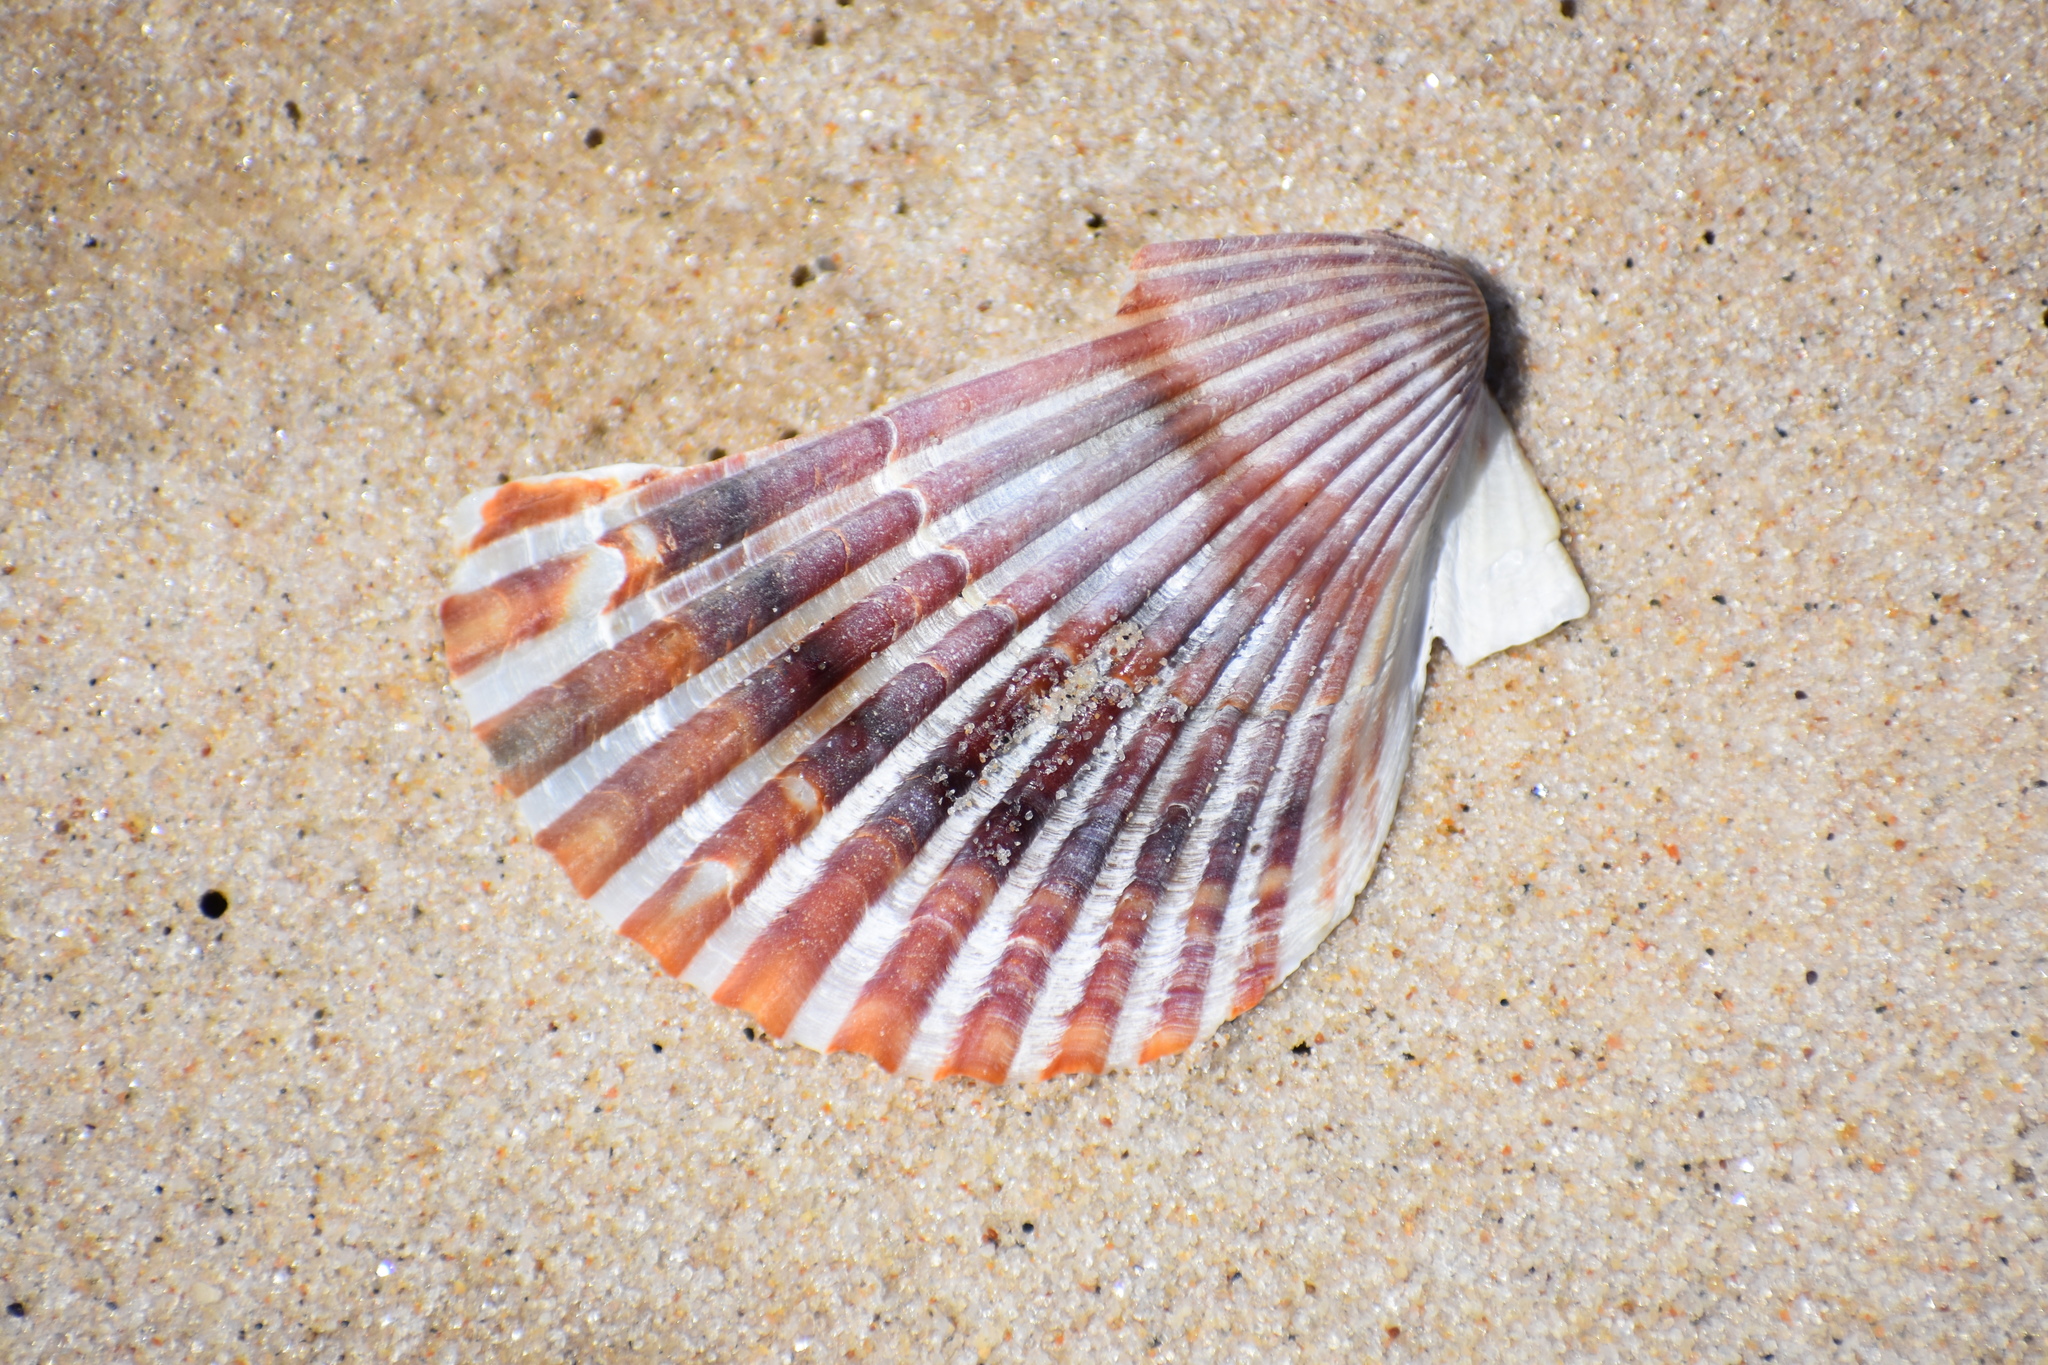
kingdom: Animalia
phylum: Mollusca
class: Bivalvia
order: Pectinida
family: Pectinidae
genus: Argopecten
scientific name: Argopecten irradians
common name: Atlantic bay scallop
